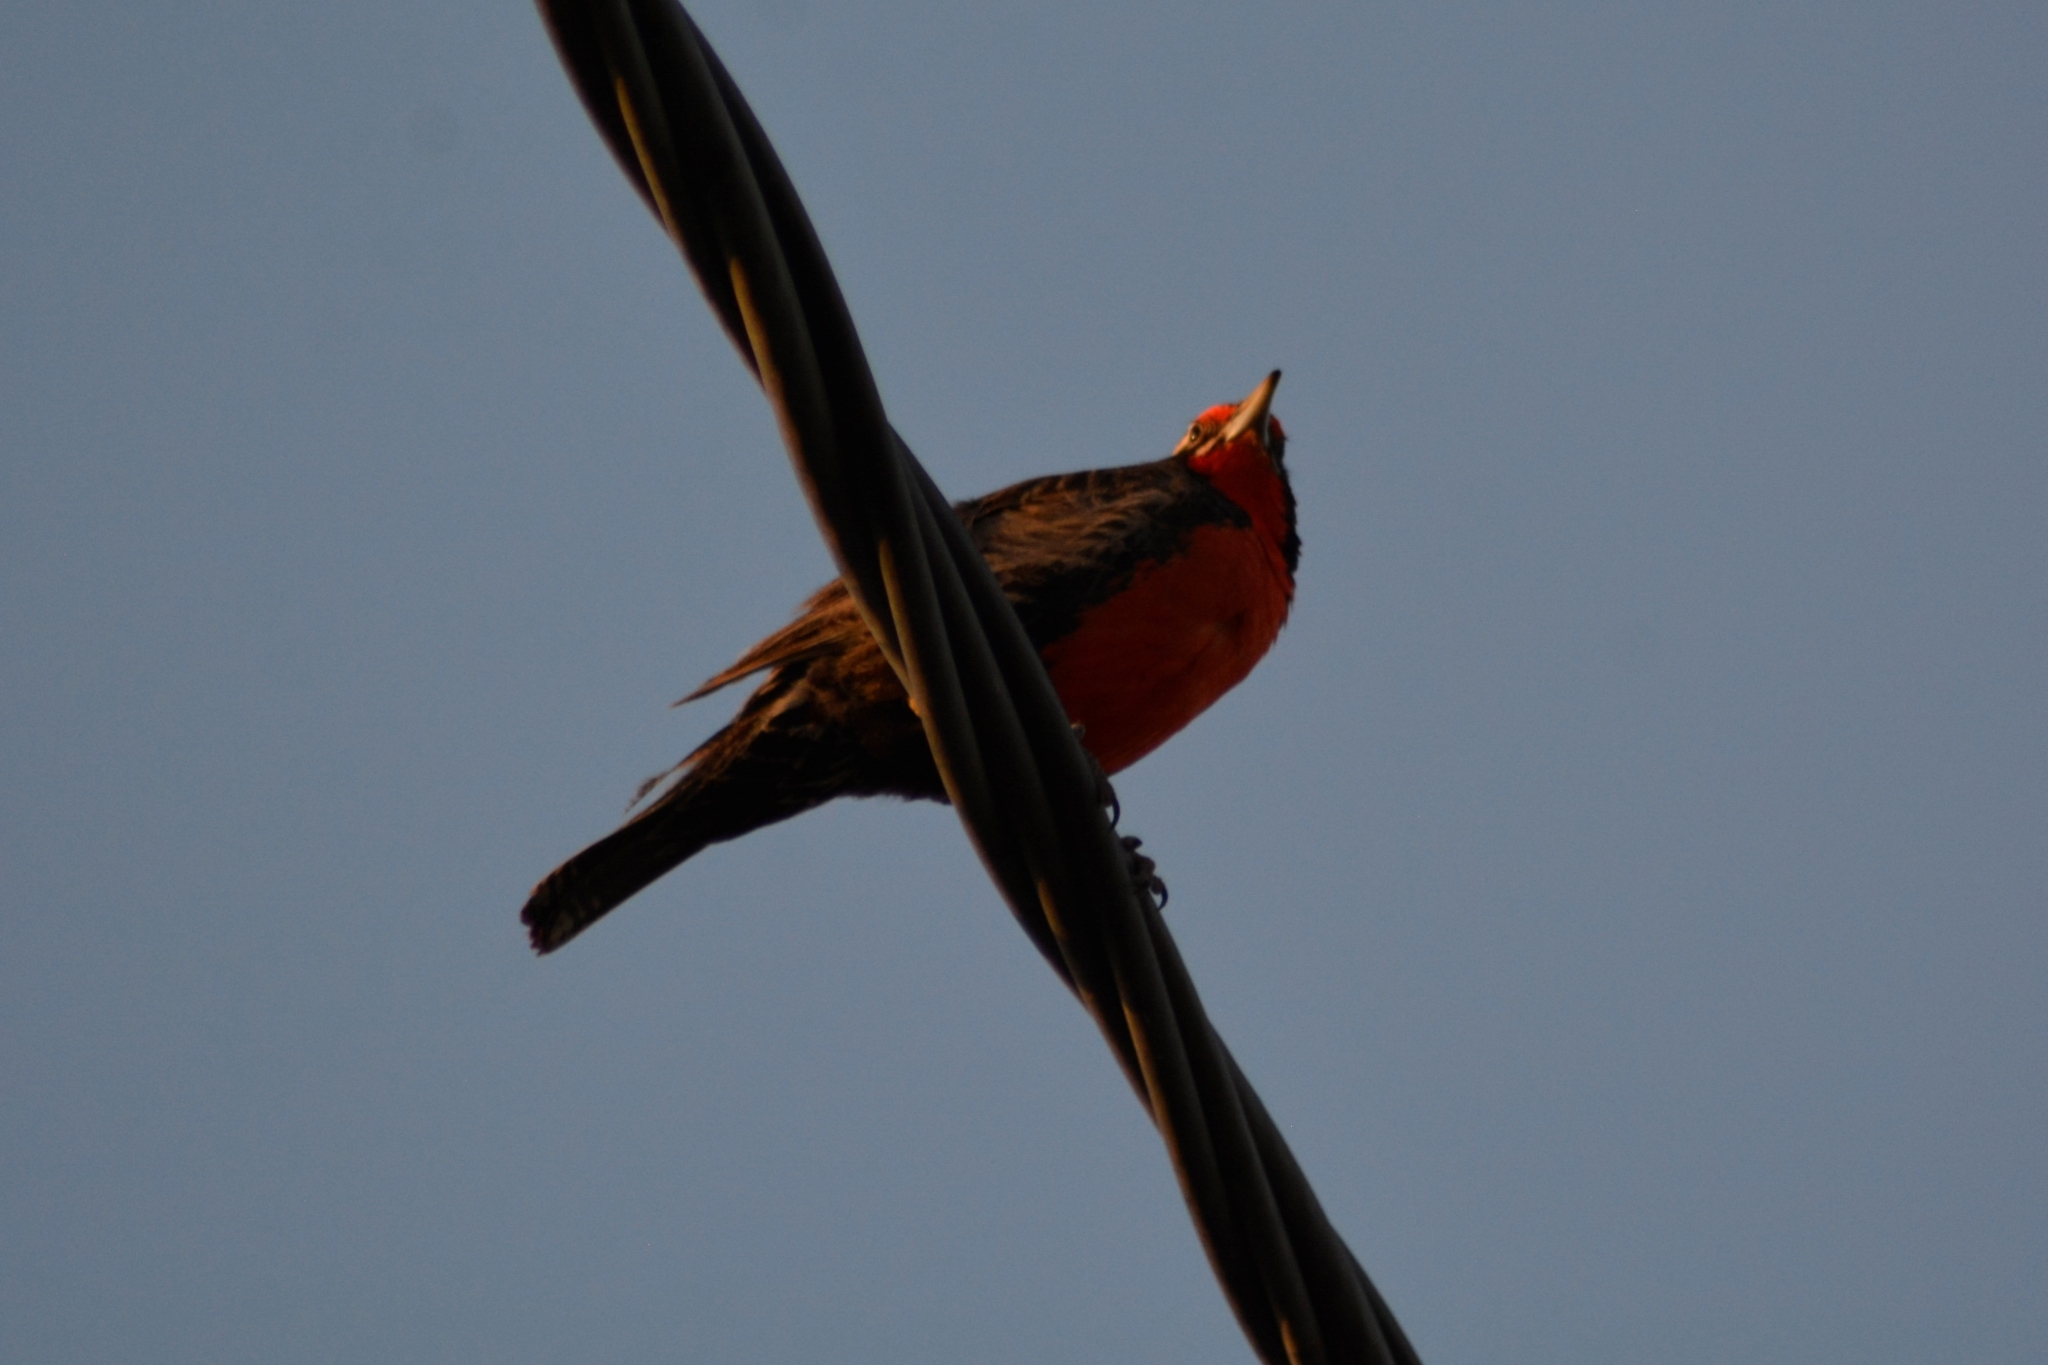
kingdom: Animalia
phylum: Chordata
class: Aves
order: Passeriformes
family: Icteridae
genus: Sturnella
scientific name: Sturnella loyca
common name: Long-tailed meadowlark
